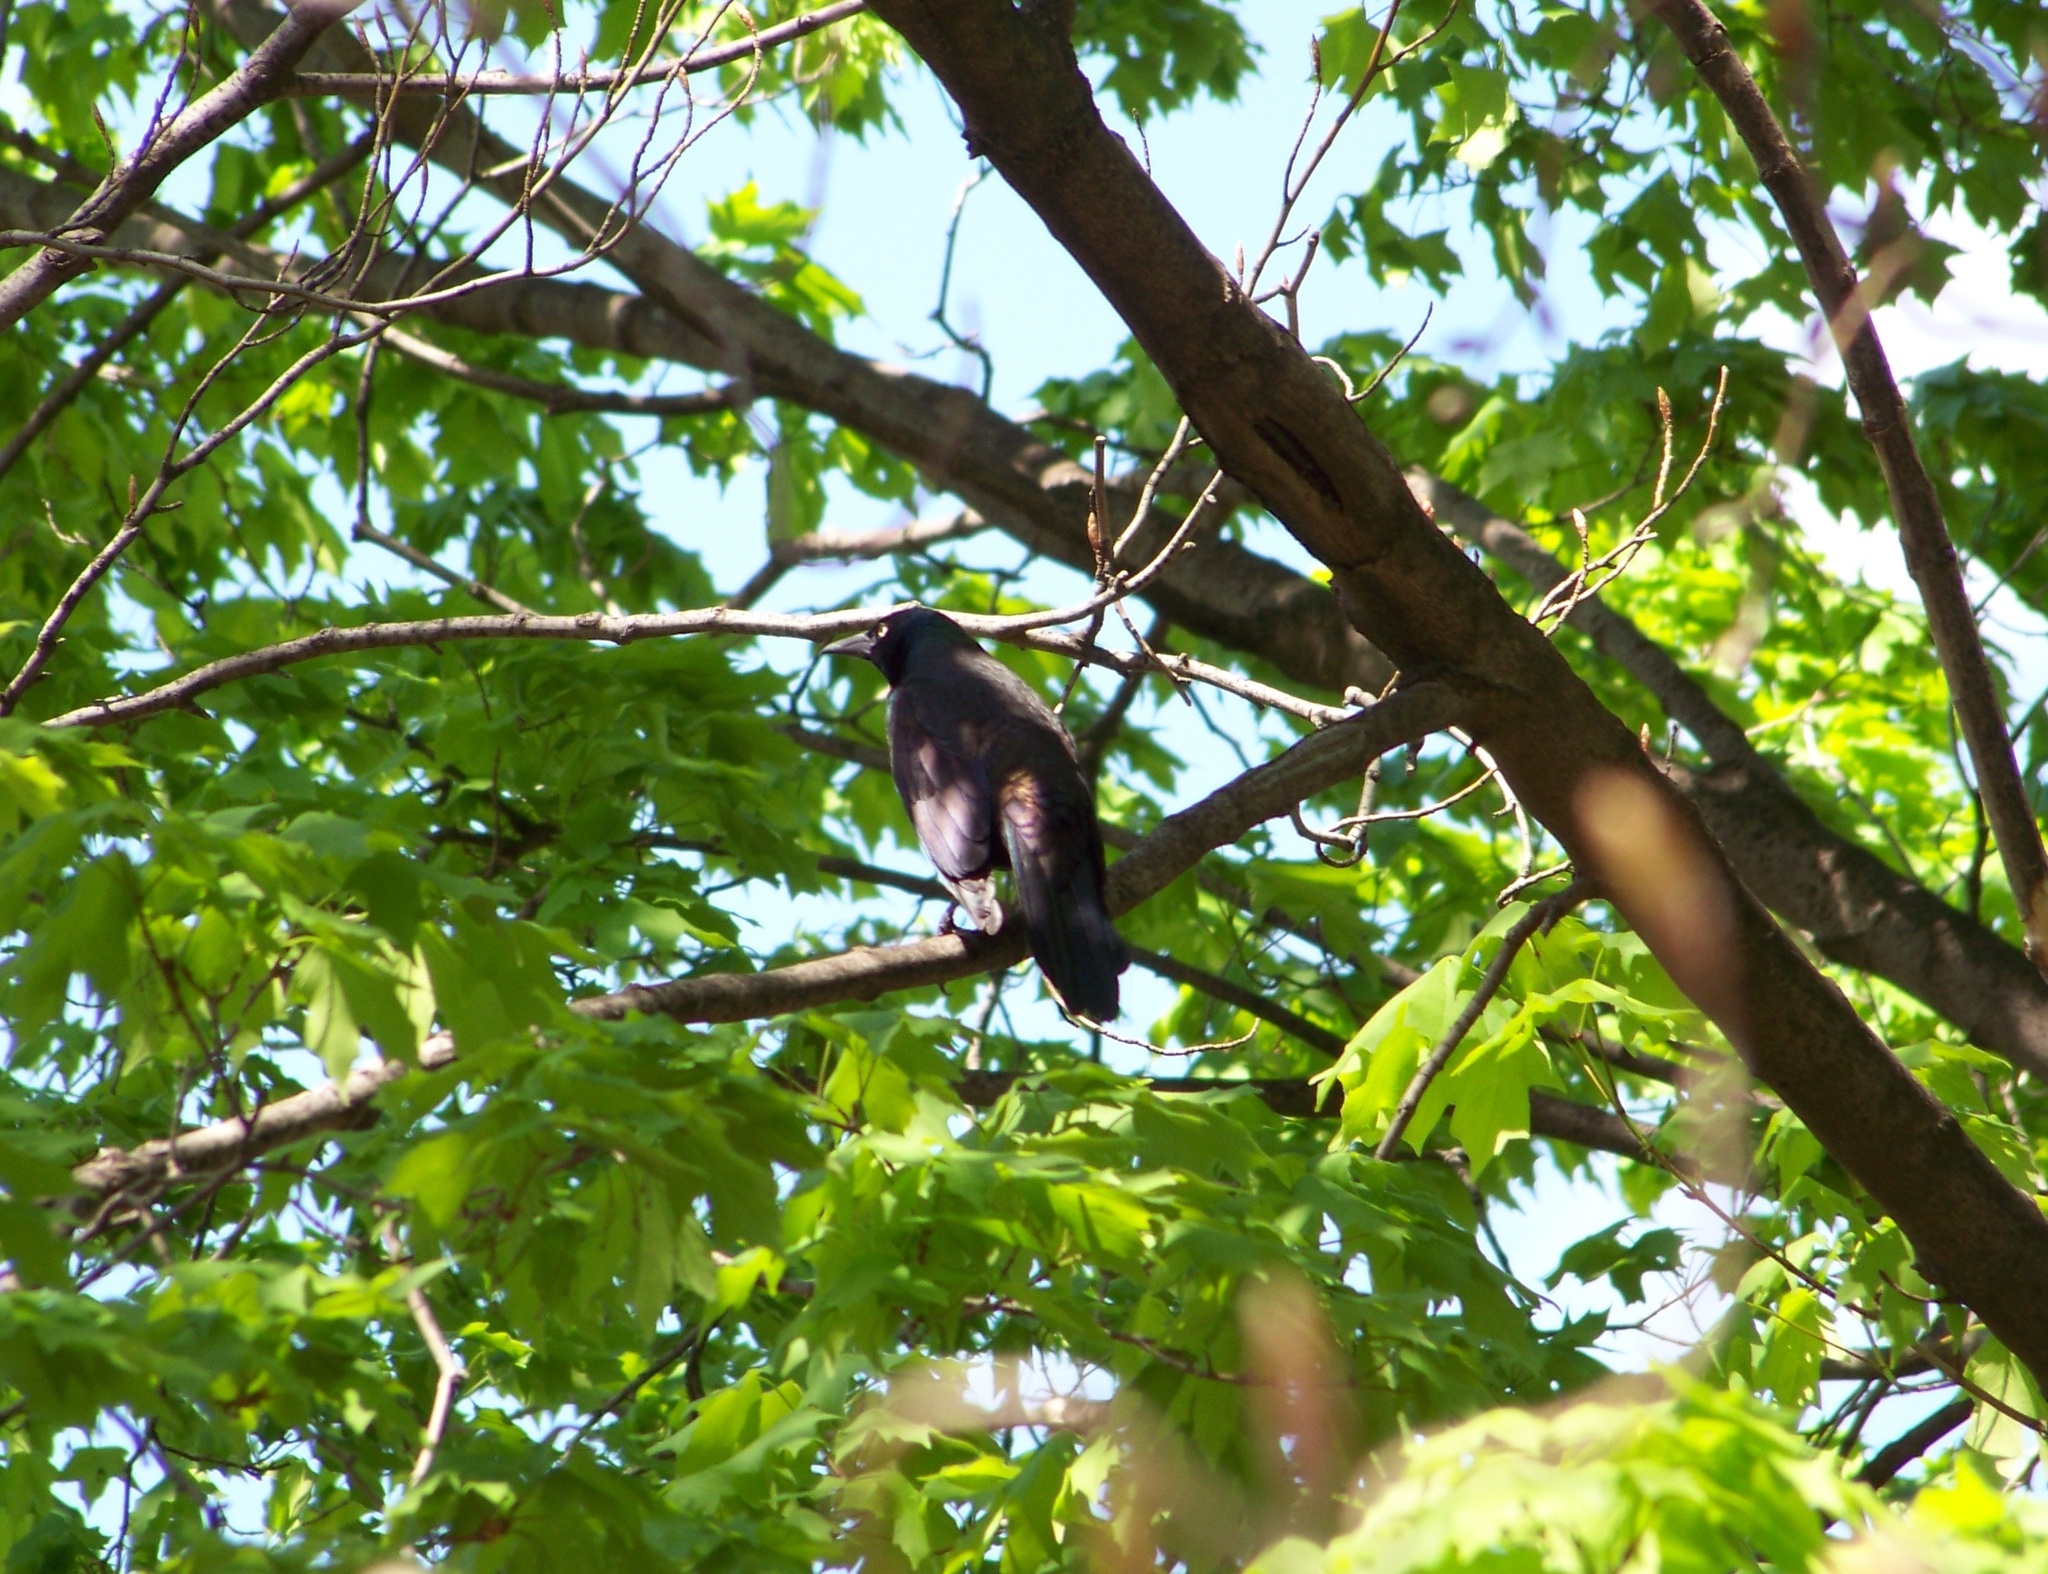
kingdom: Animalia
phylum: Chordata
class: Aves
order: Passeriformes
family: Icteridae
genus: Quiscalus
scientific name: Quiscalus quiscula
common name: Common grackle
